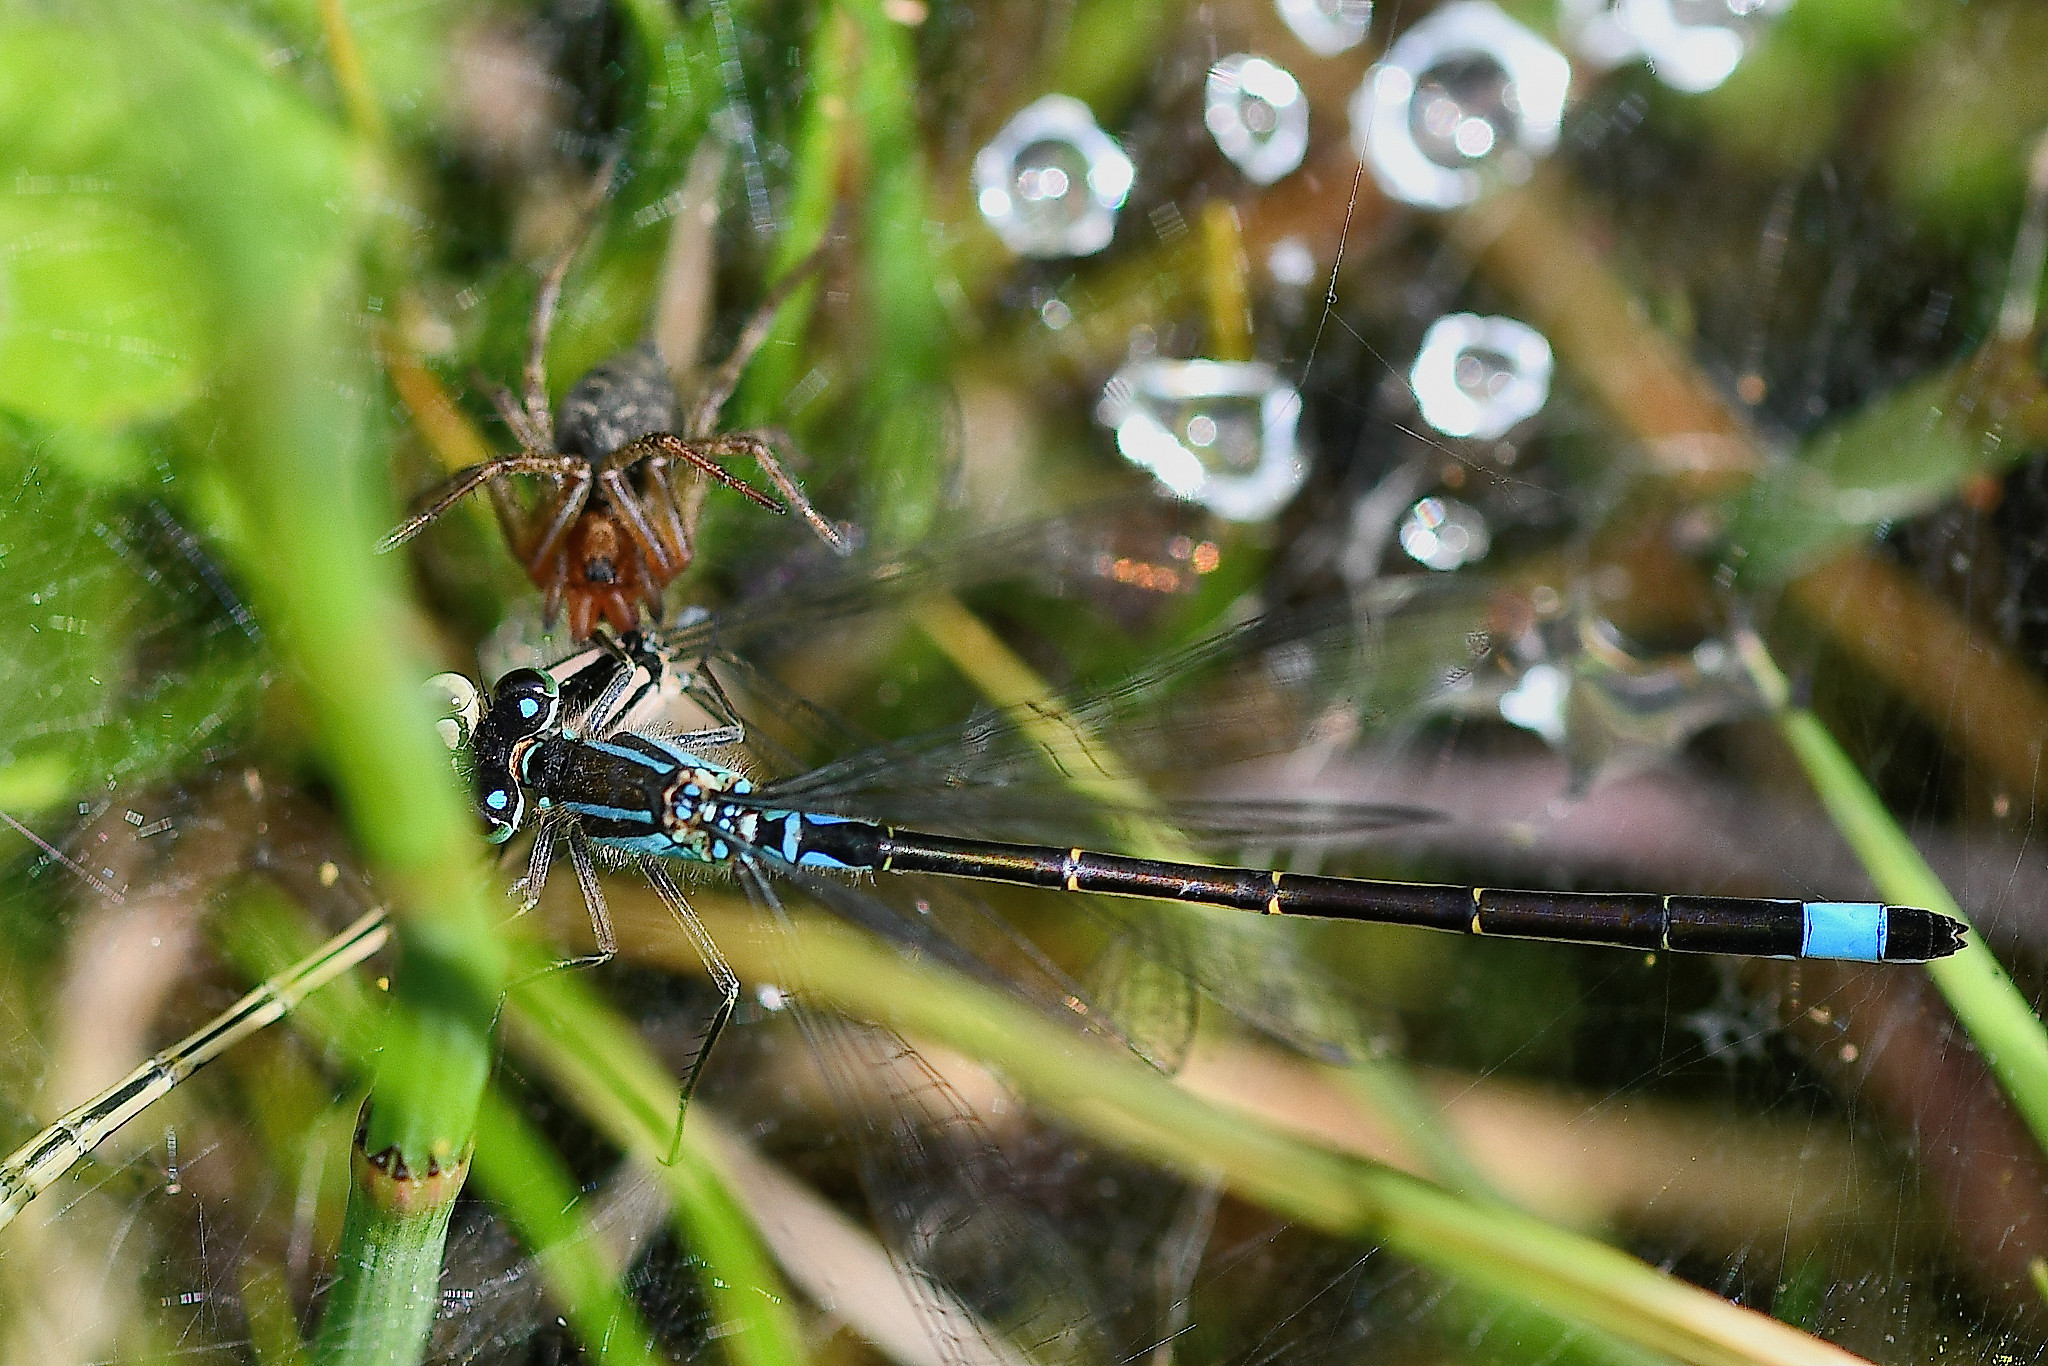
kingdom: Animalia
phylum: Arthropoda
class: Insecta
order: Odonata
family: Coenagrionidae
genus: Ischnura
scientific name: Ischnura elegans
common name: Blue-tailed damselfly
